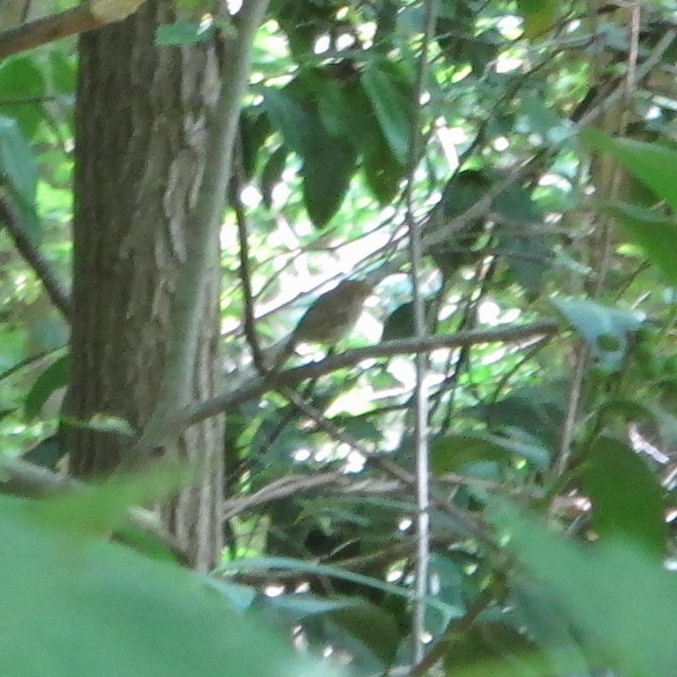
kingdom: Animalia
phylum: Chordata
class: Aves
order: Passeriformes
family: Muscicapidae
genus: Erithacus
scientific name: Erithacus rubecula
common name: European robin
